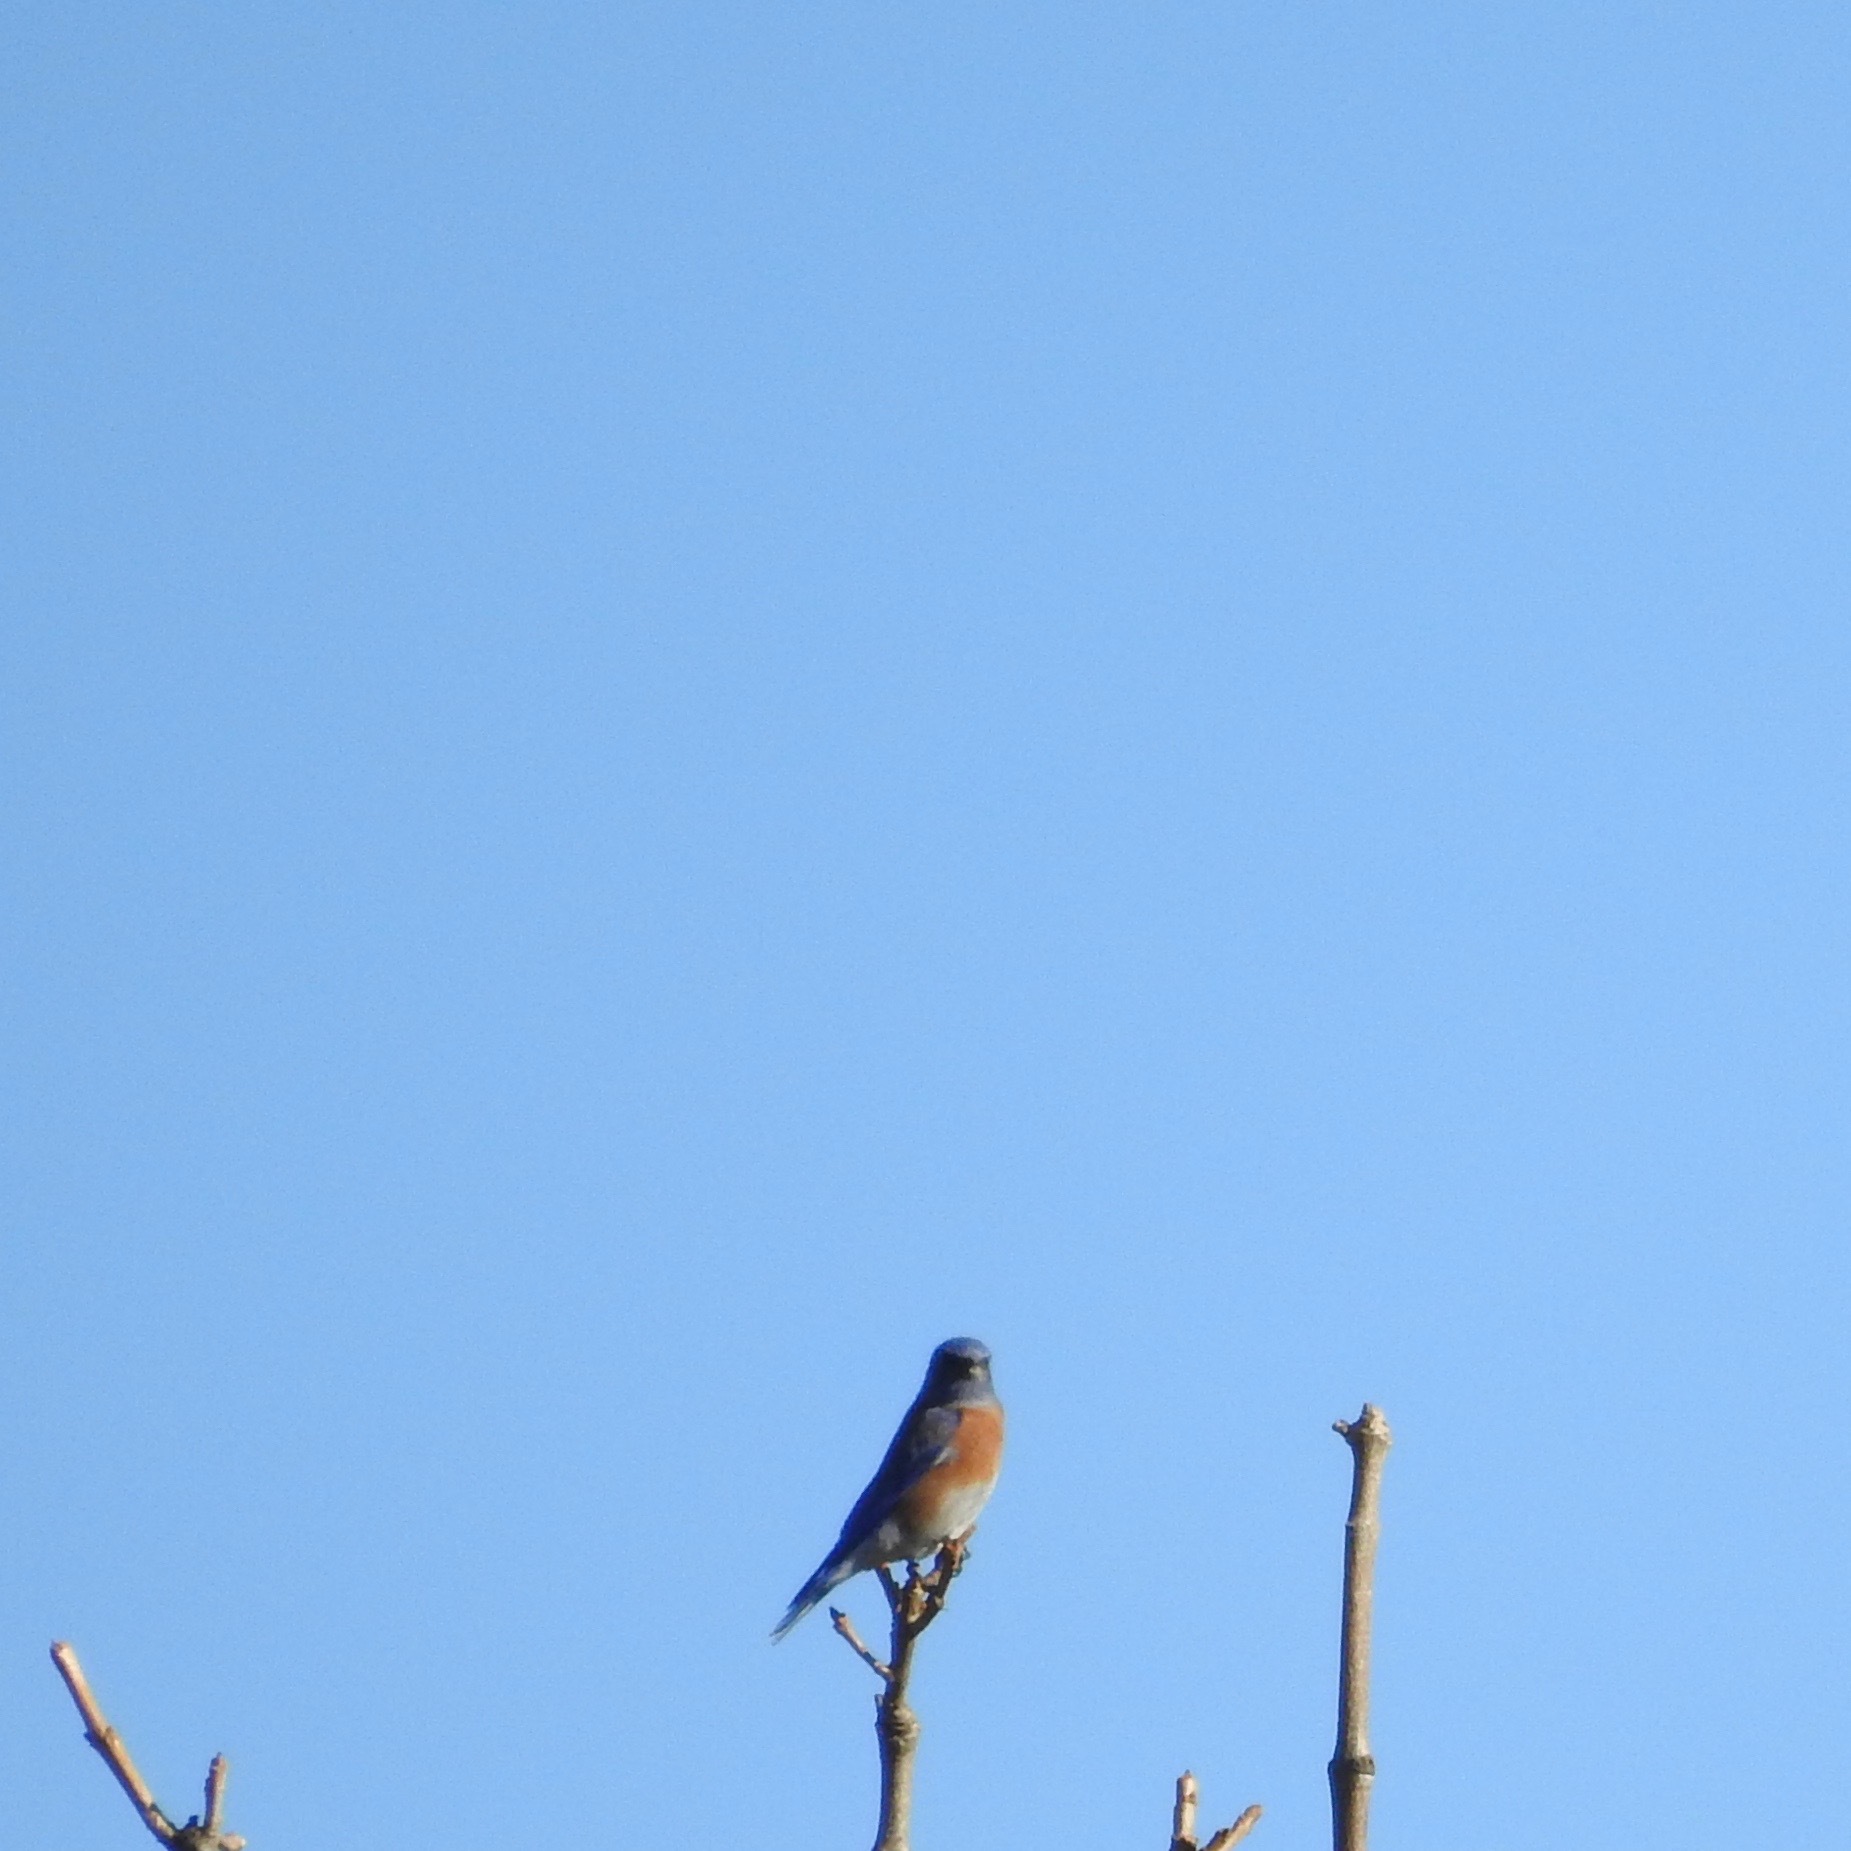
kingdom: Animalia
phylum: Chordata
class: Aves
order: Passeriformes
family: Turdidae
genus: Sialia
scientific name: Sialia mexicana
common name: Western bluebird
